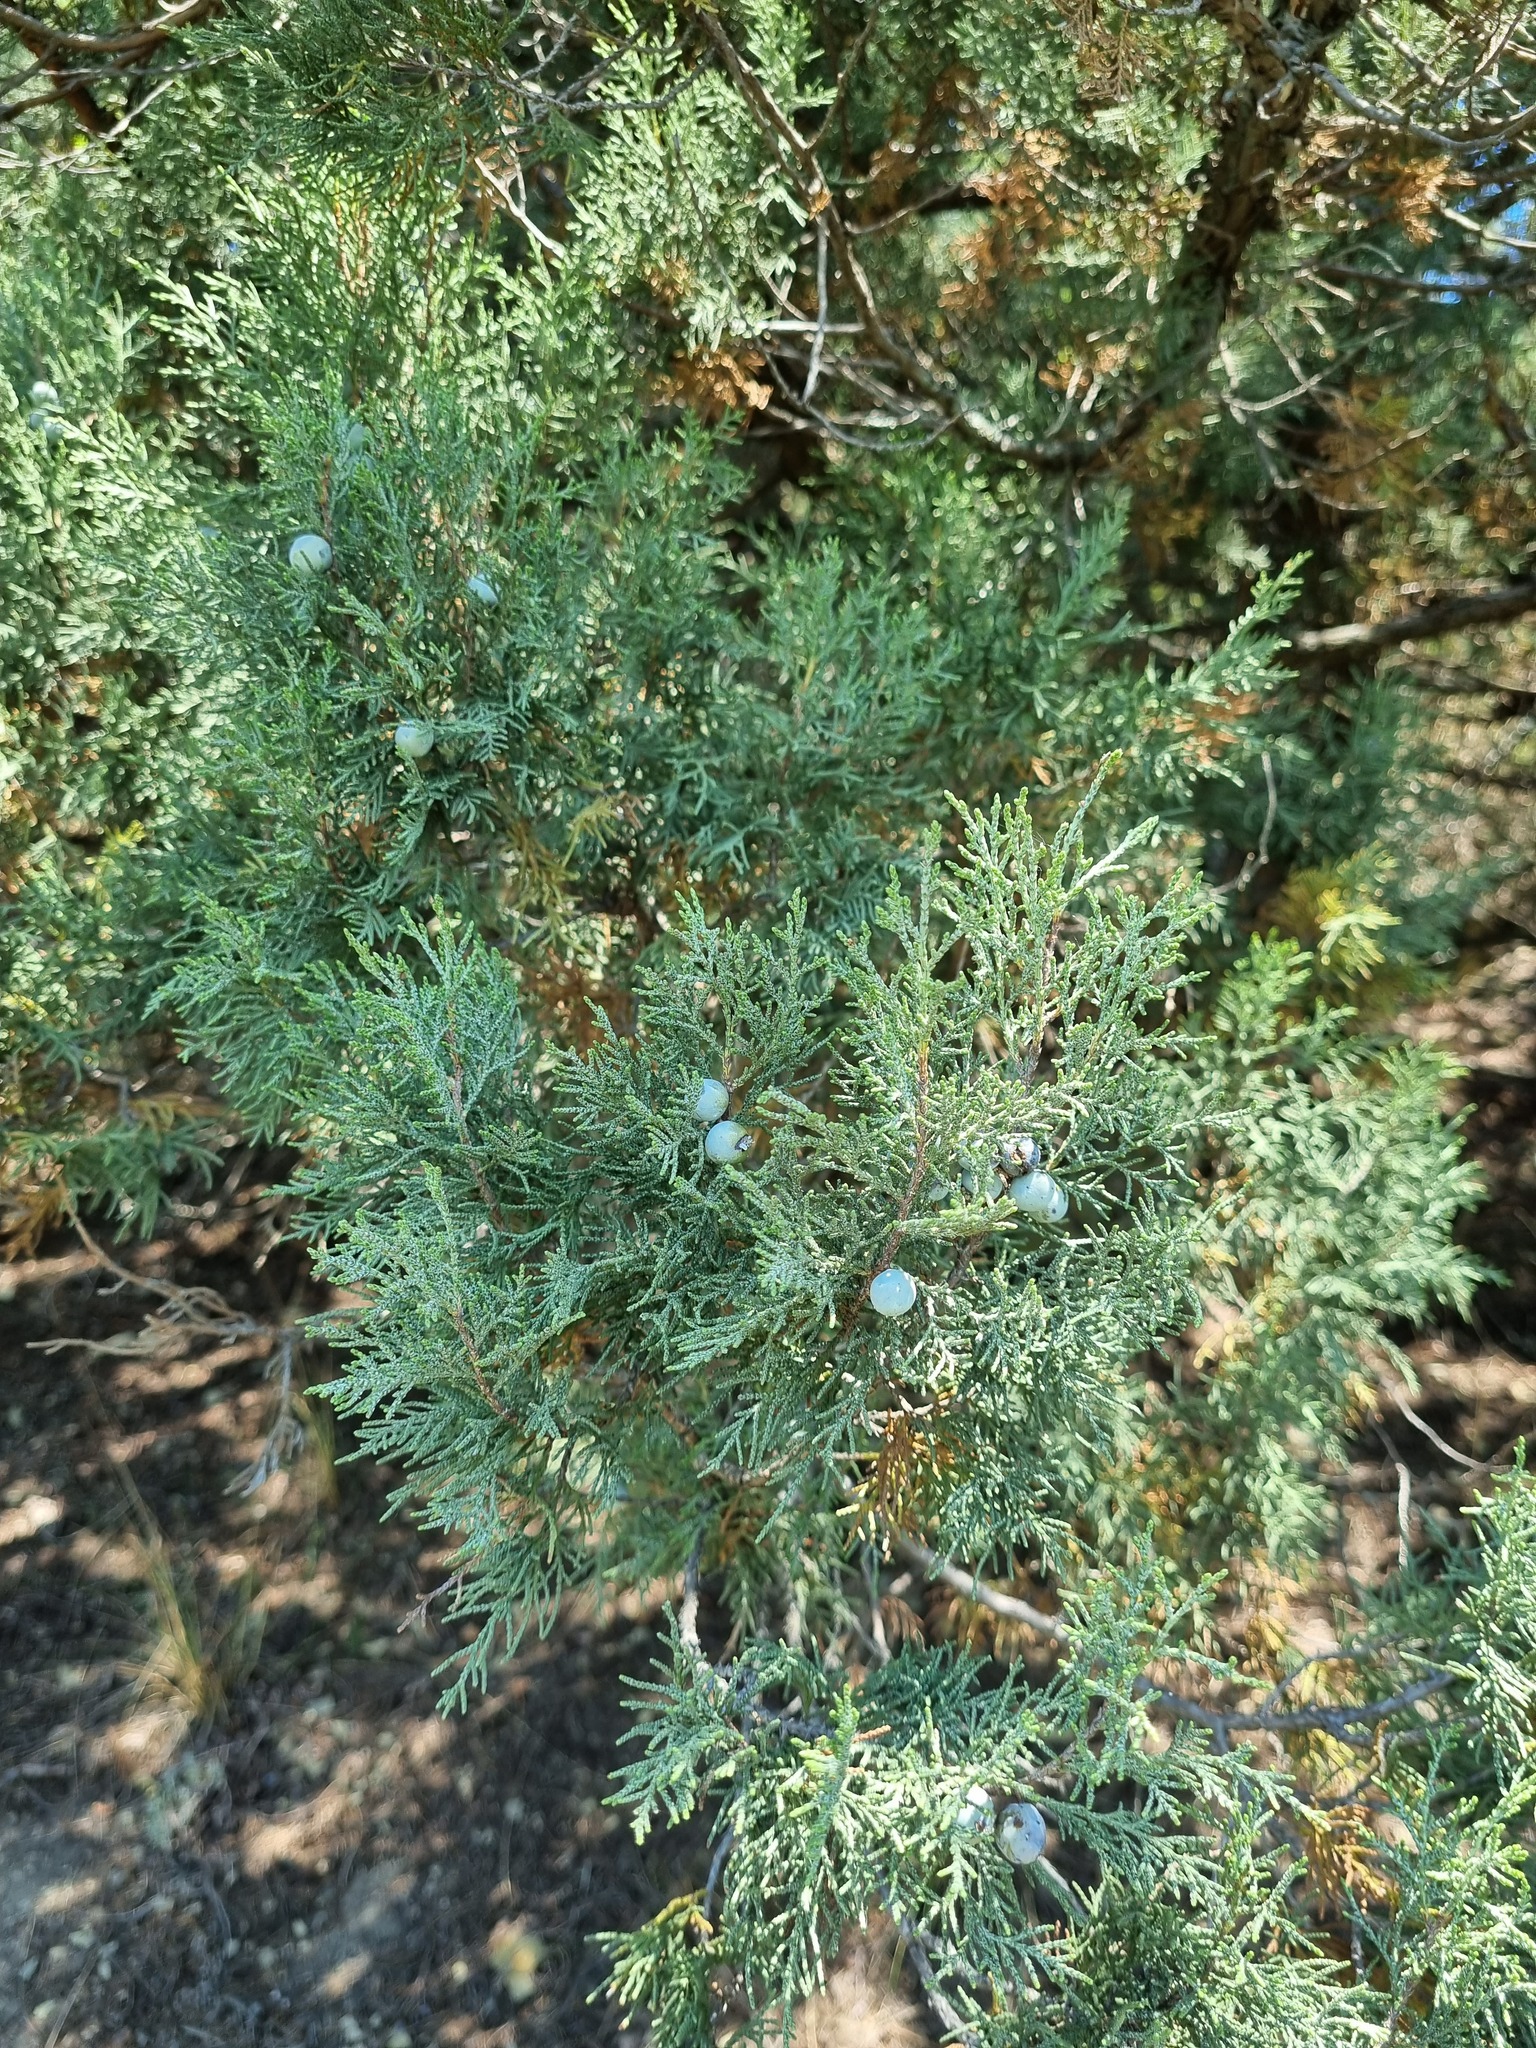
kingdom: Plantae
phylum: Tracheophyta
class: Pinopsida
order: Pinales
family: Cupressaceae
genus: Juniperus
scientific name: Juniperus excelsa
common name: Crimean juniper
